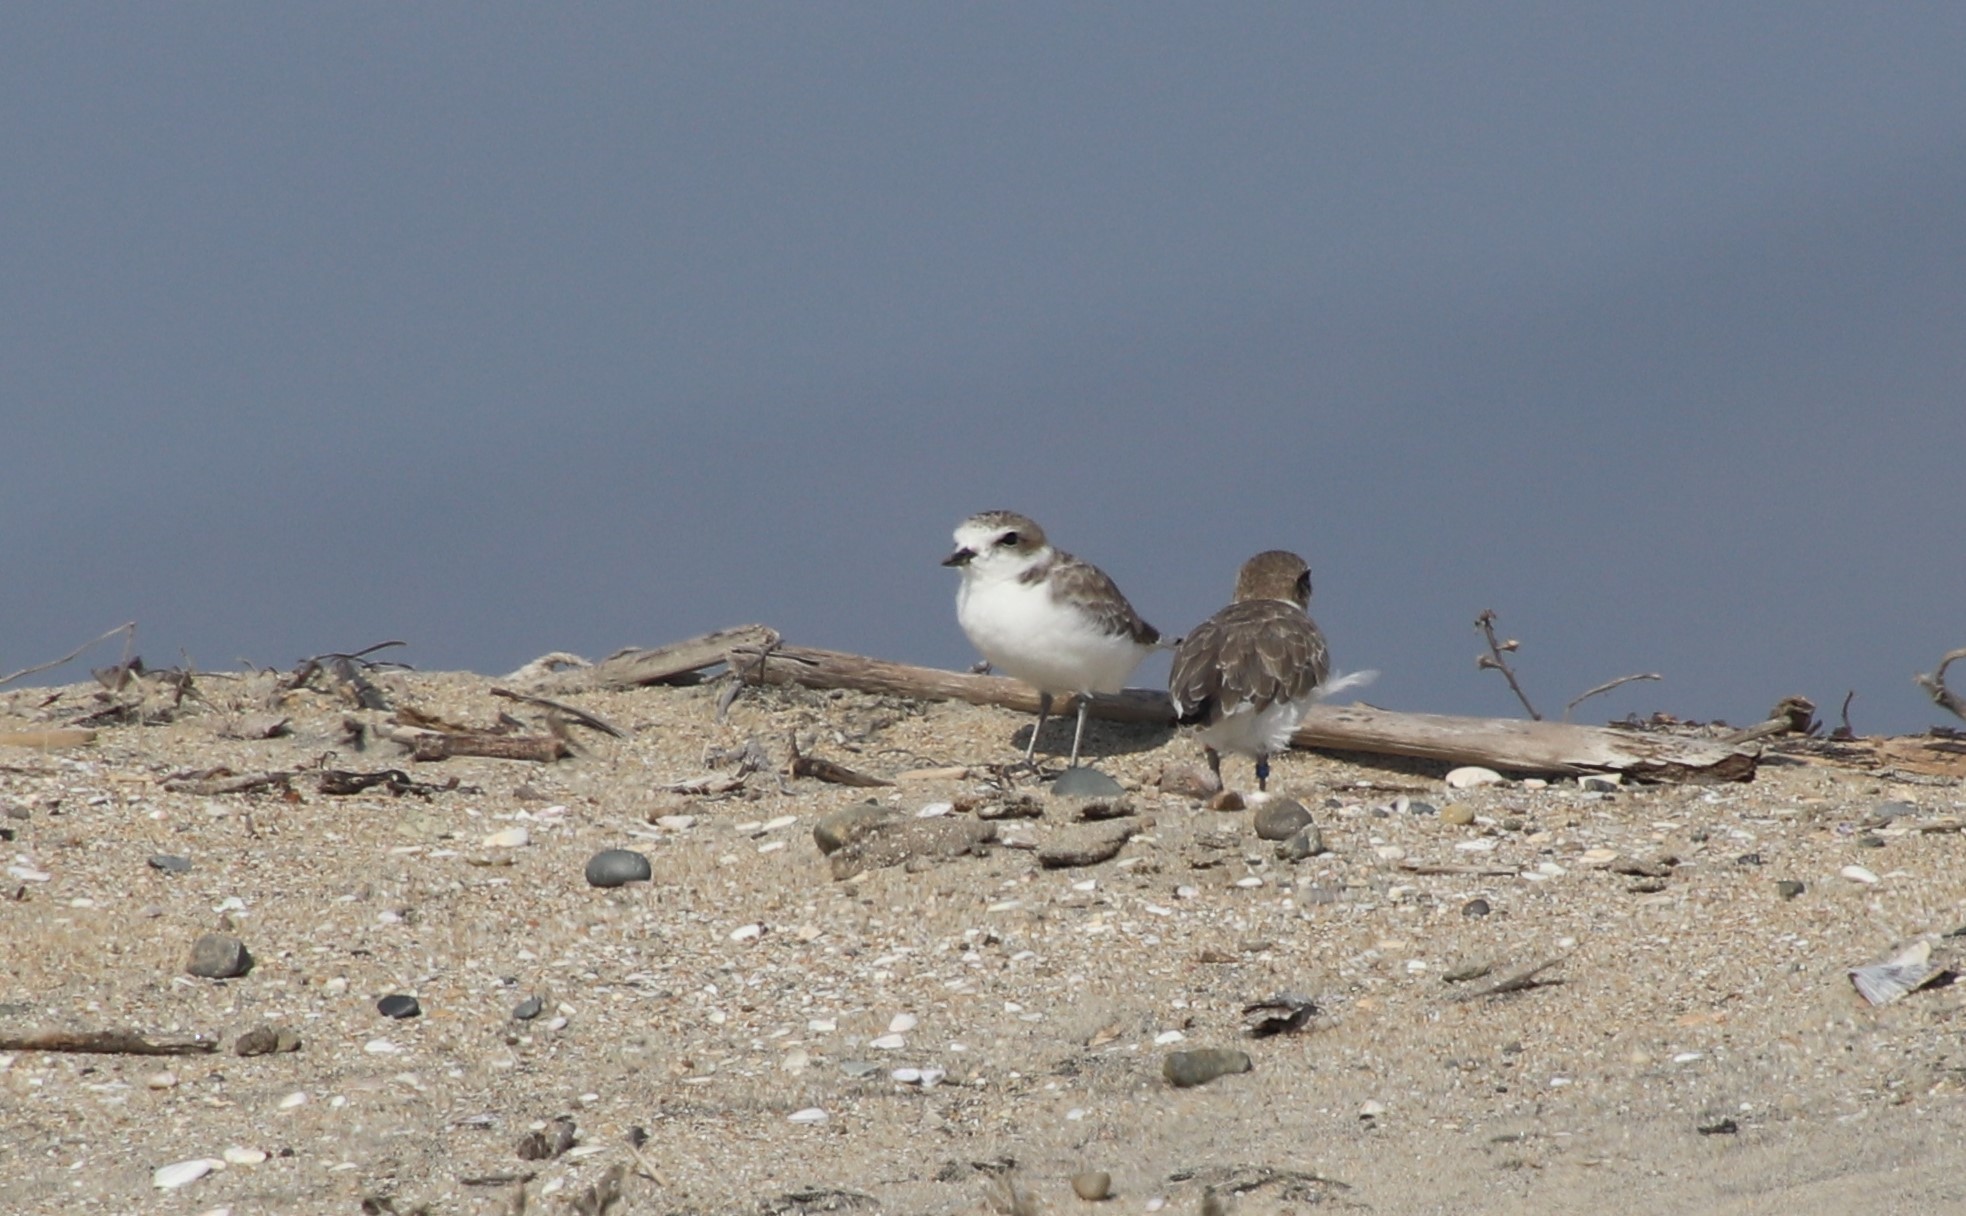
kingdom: Animalia
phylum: Chordata
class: Aves
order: Charadriiformes
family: Charadriidae
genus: Anarhynchus
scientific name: Anarhynchus
